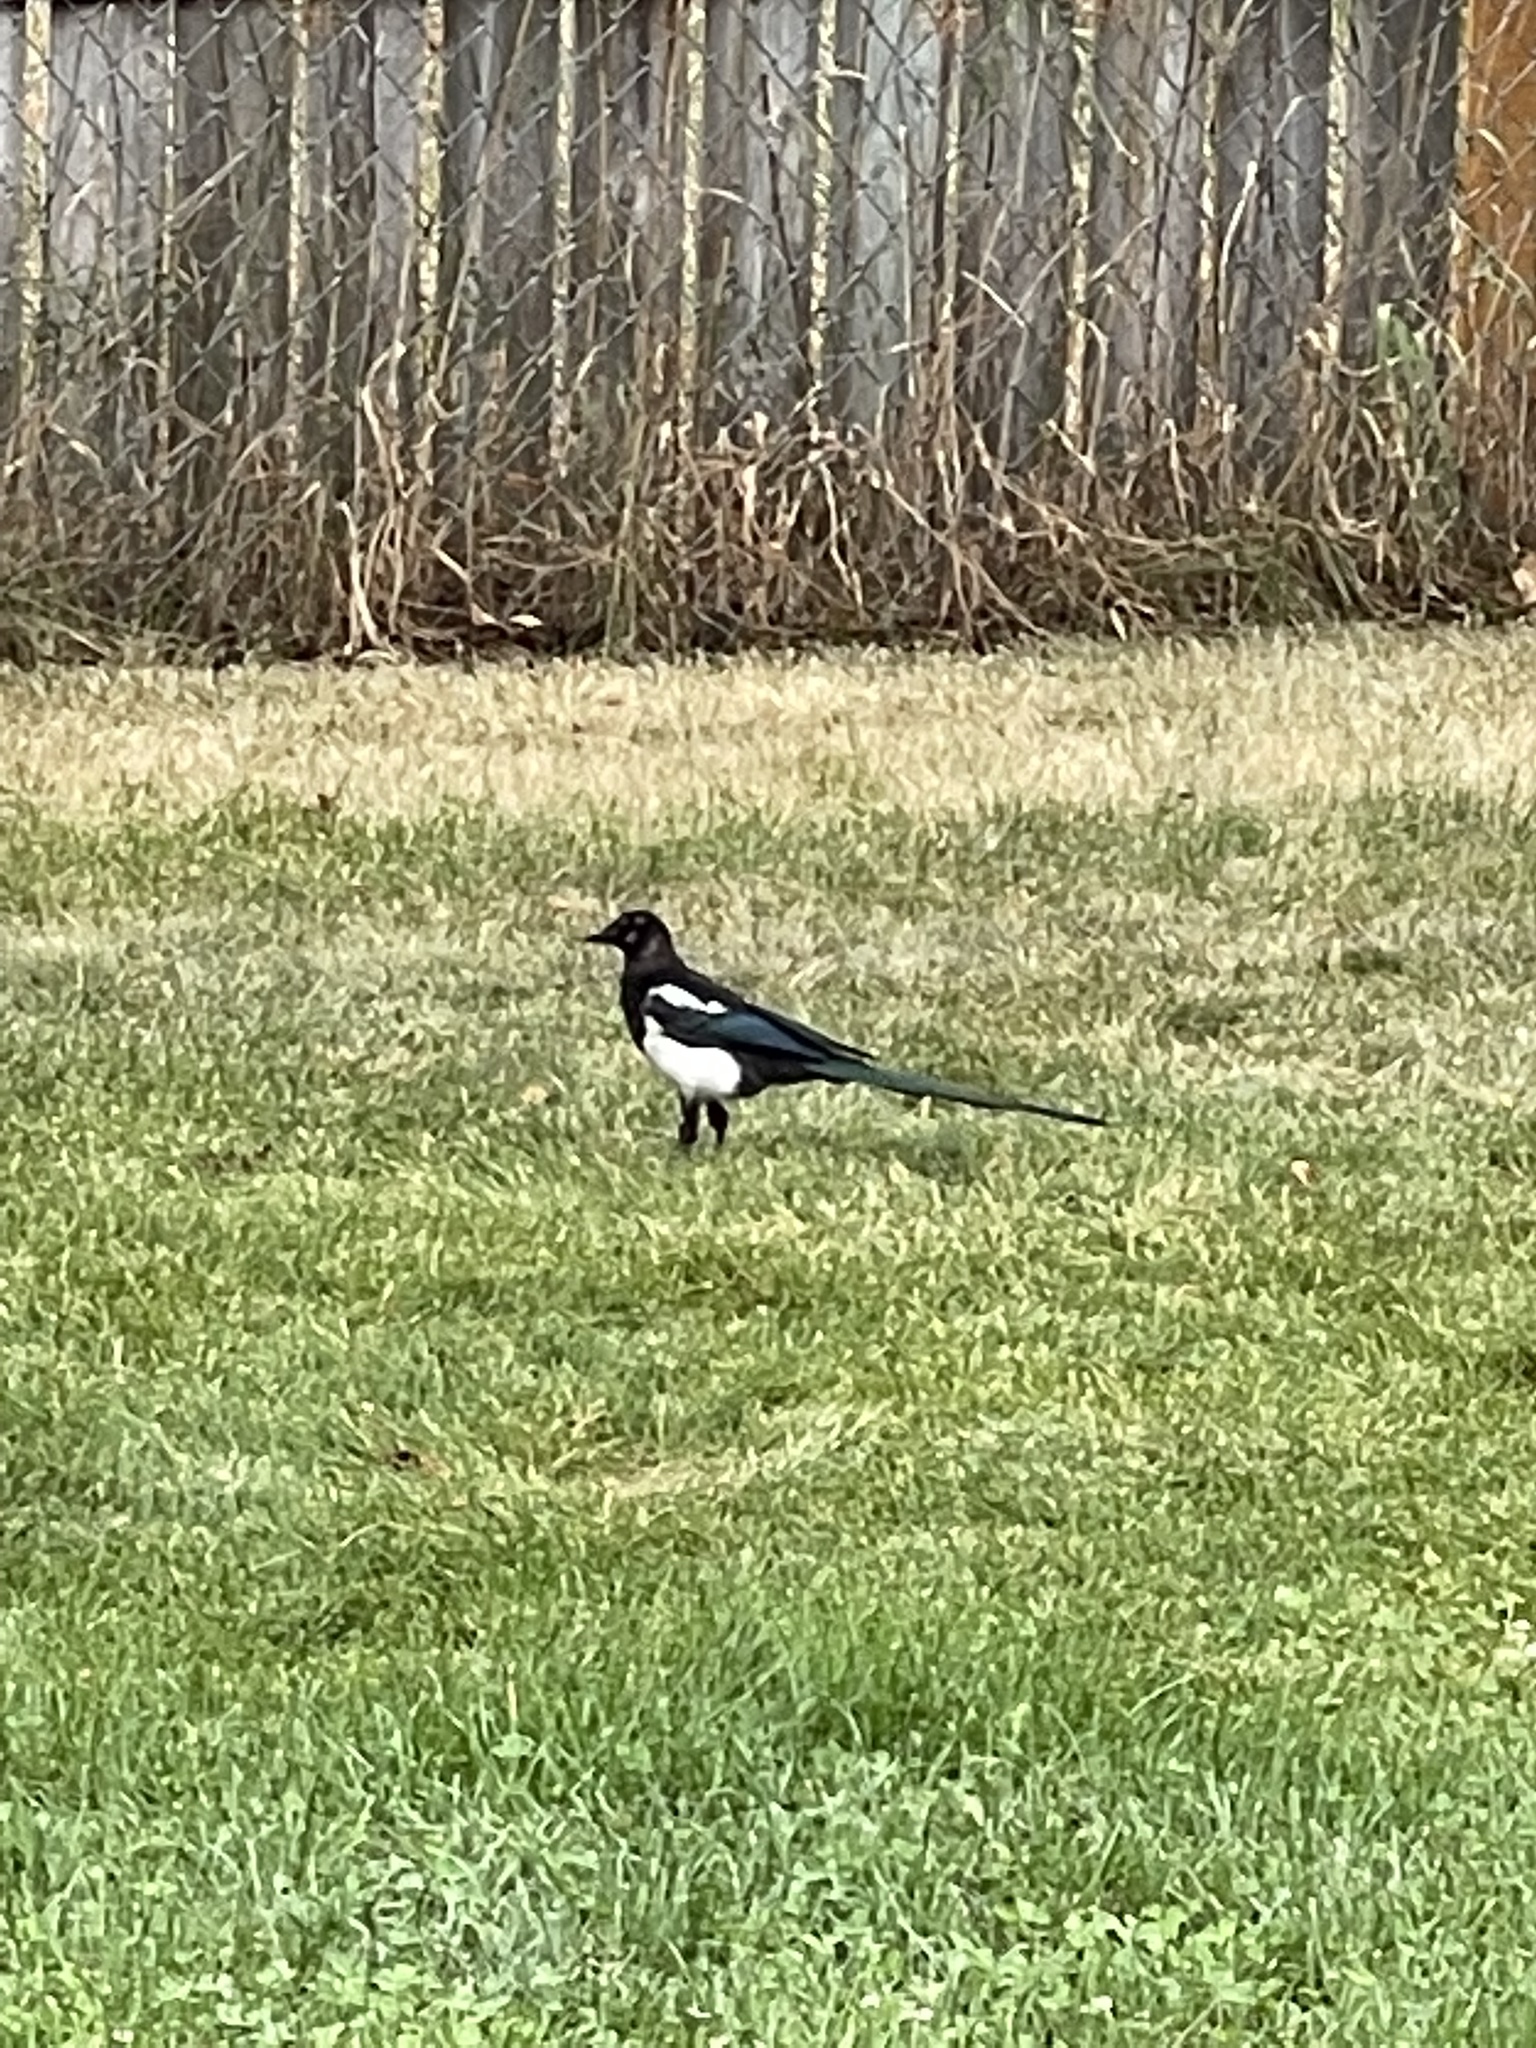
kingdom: Animalia
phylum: Chordata
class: Aves
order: Passeriformes
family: Corvidae
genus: Pica
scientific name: Pica hudsonia
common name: Black-billed magpie
